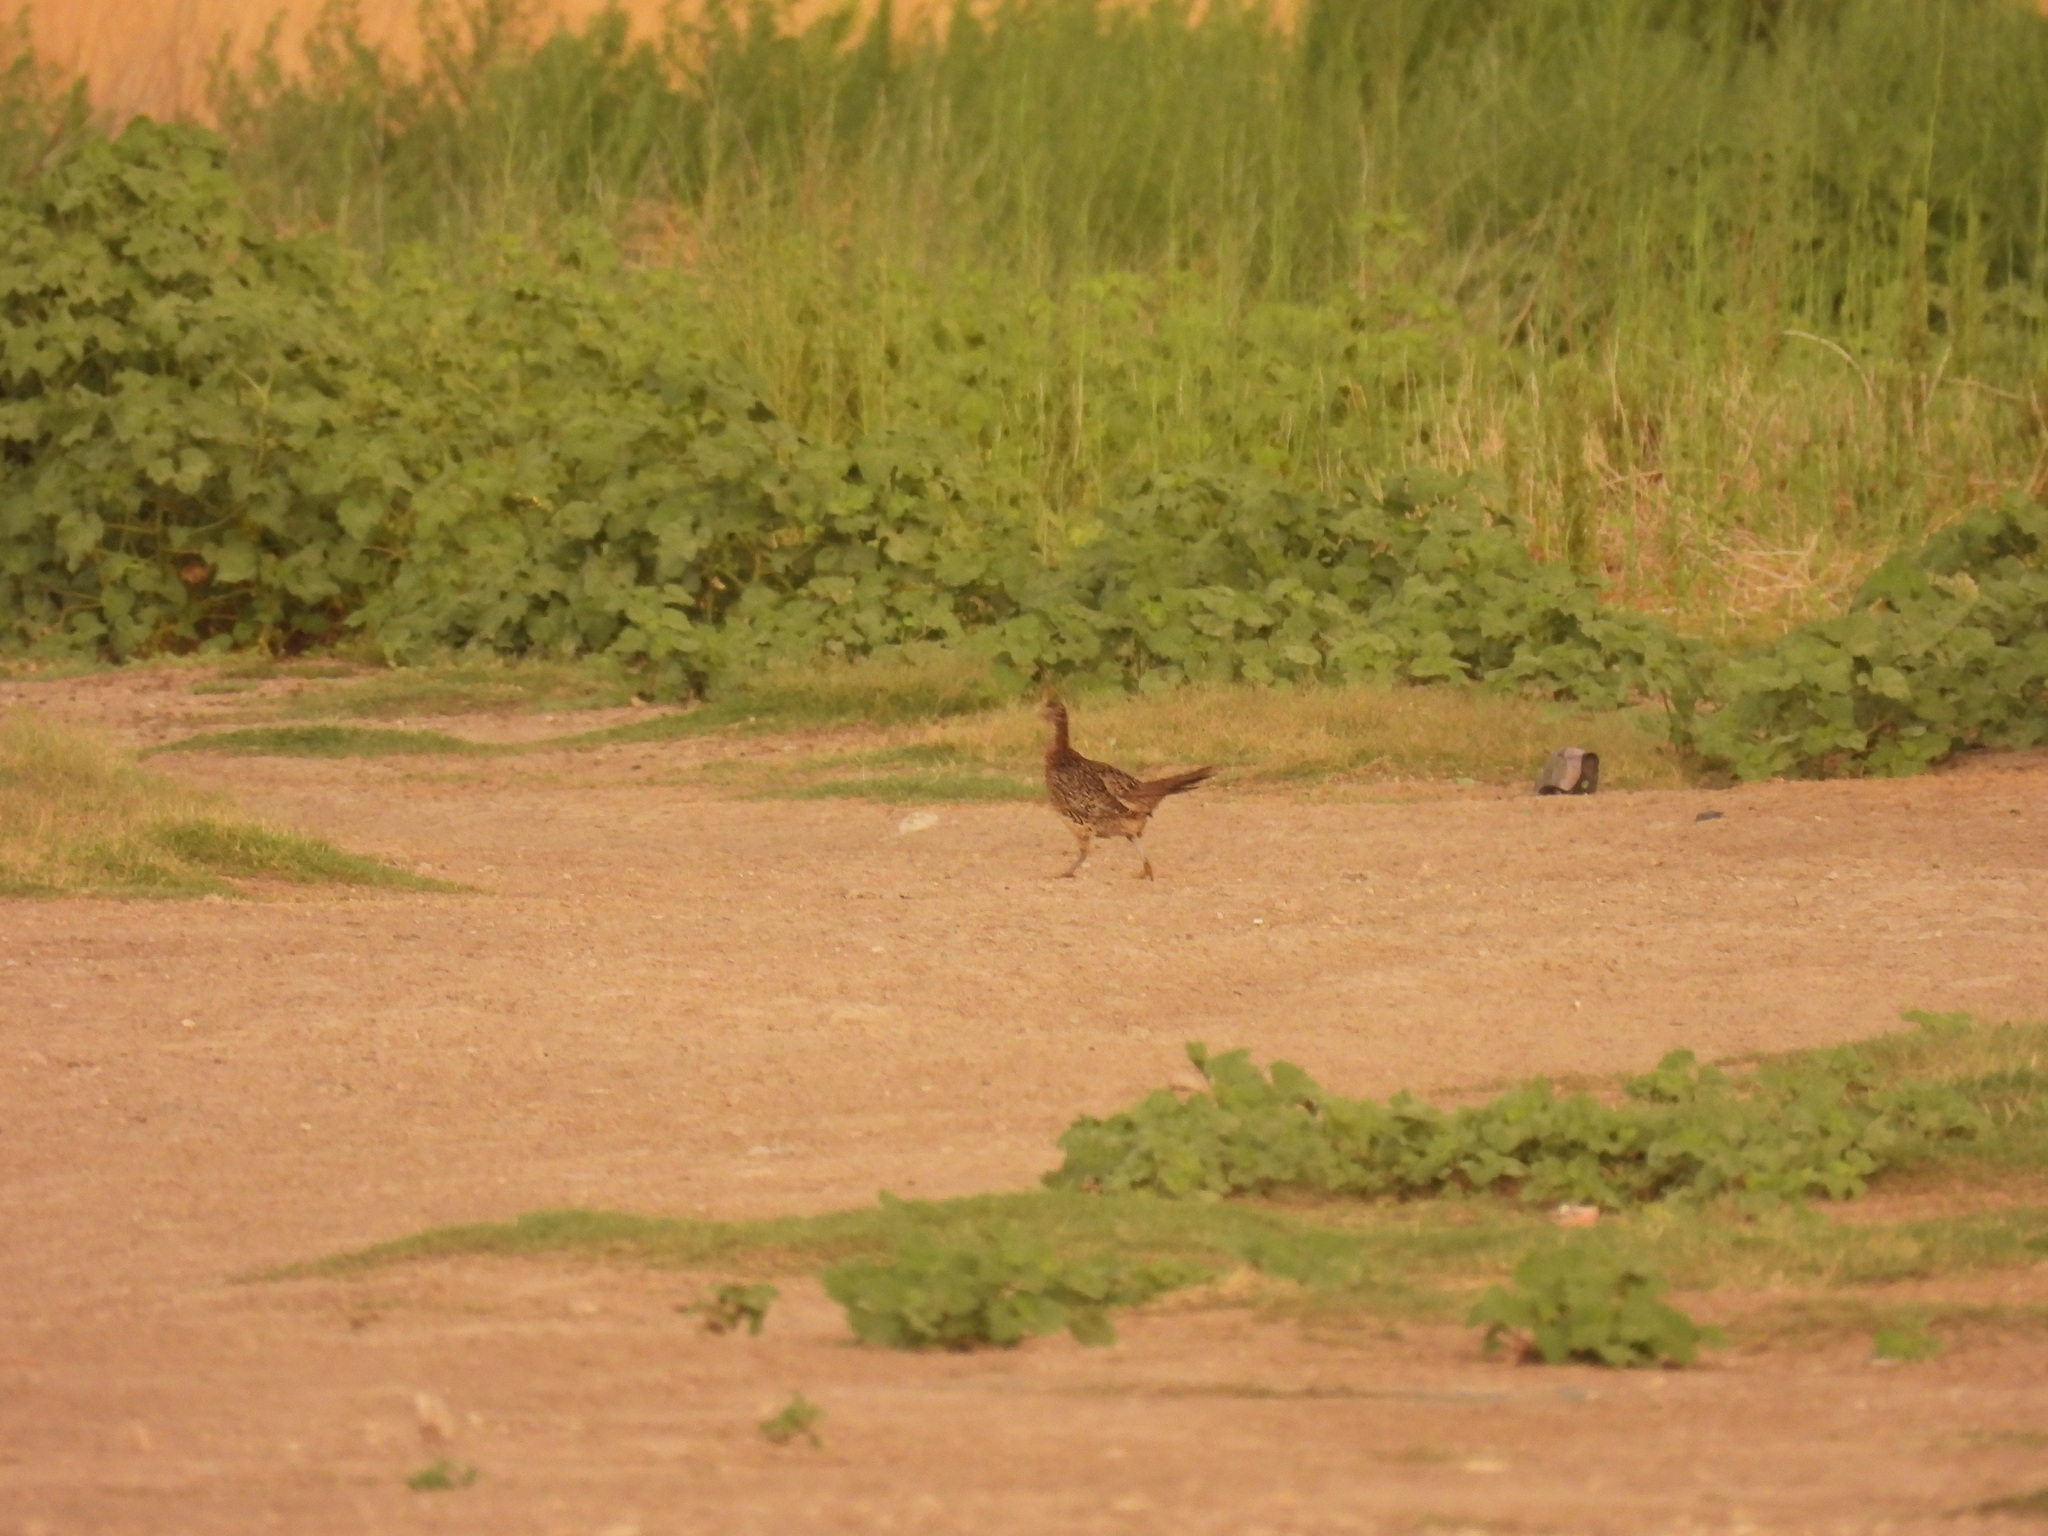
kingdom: Animalia
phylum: Chordata
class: Aves
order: Galliformes
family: Phasianidae
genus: Phasianus
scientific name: Phasianus colchicus
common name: Common pheasant
